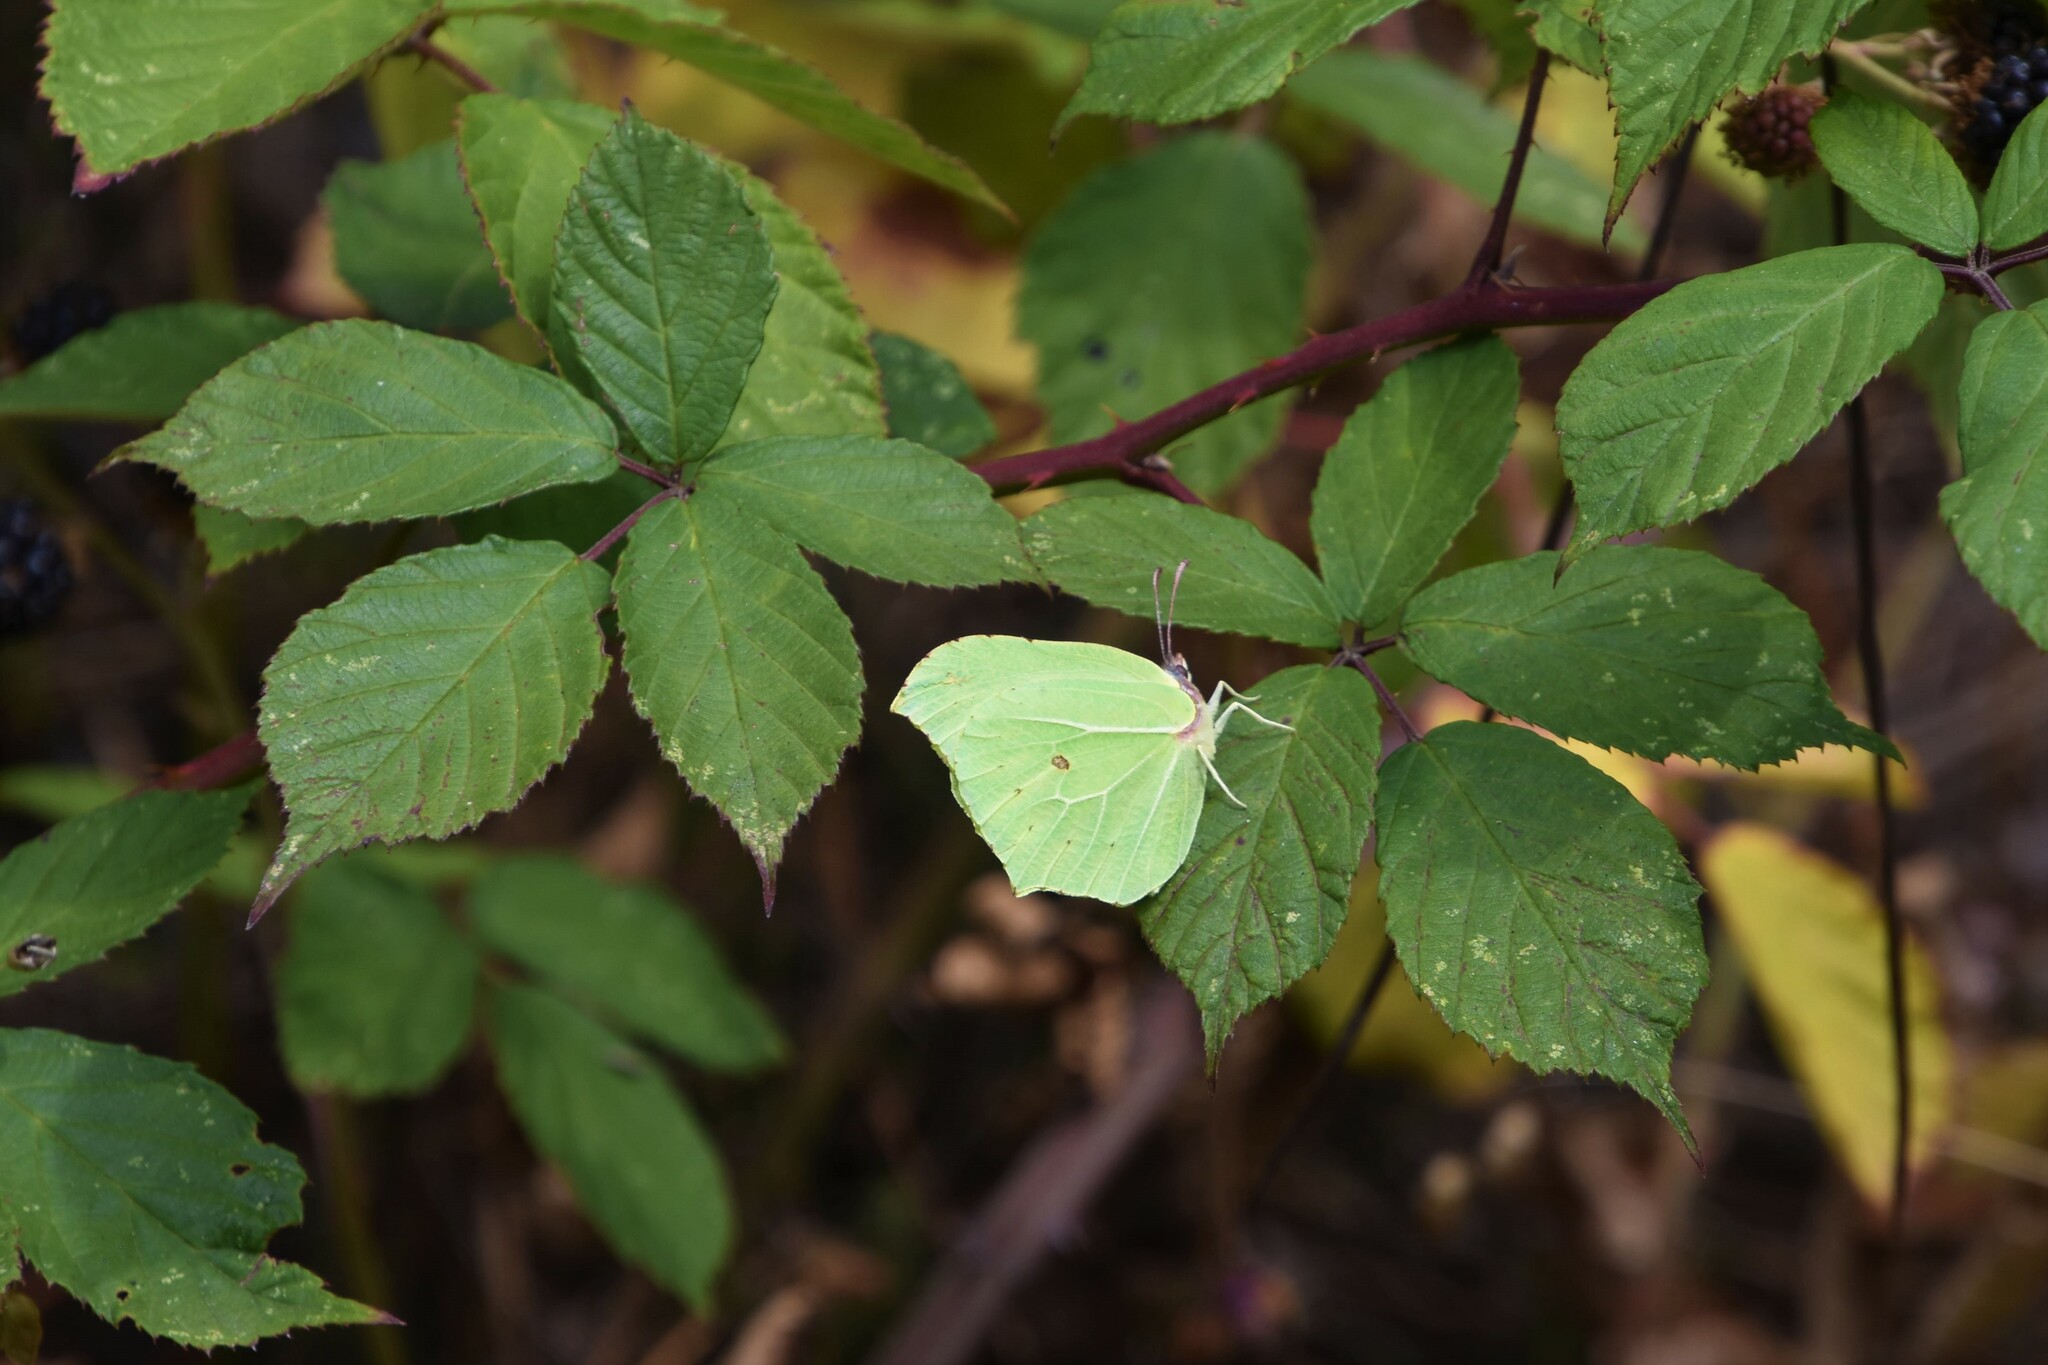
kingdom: Animalia
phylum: Arthropoda
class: Insecta
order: Lepidoptera
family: Pieridae
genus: Gonepteryx
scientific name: Gonepteryx rhamni
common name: Brimstone
